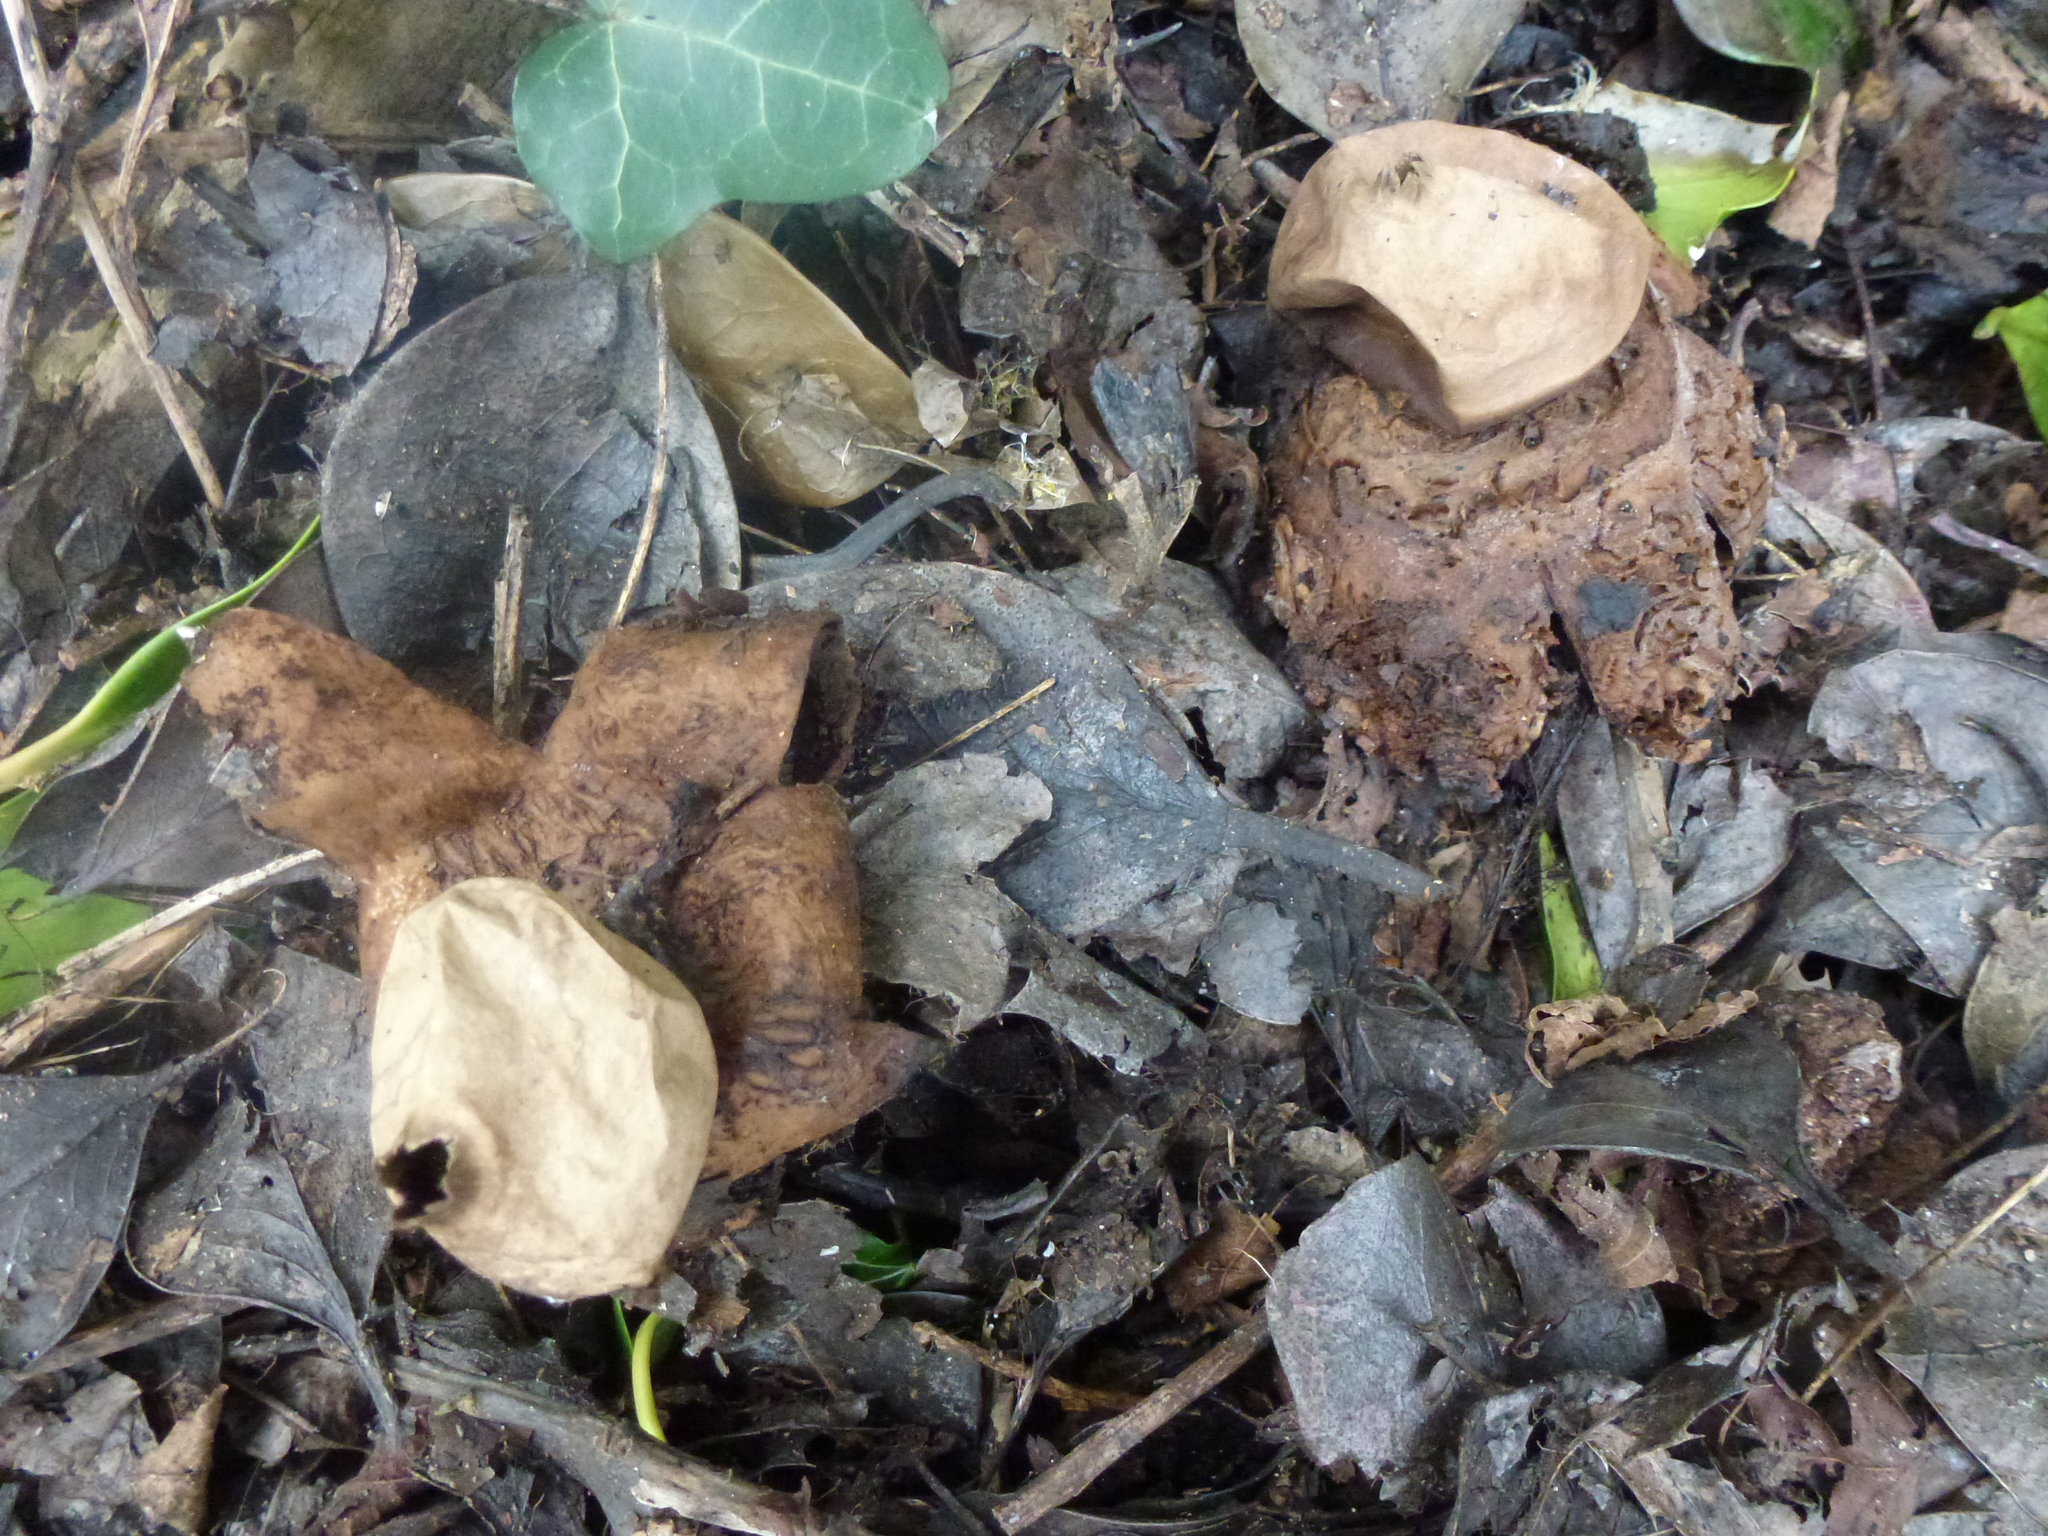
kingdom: Fungi
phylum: Basidiomycota
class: Agaricomycetes
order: Geastrales
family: Geastraceae
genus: Geastrum
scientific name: Geastrum triplex
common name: Collared earthstar
